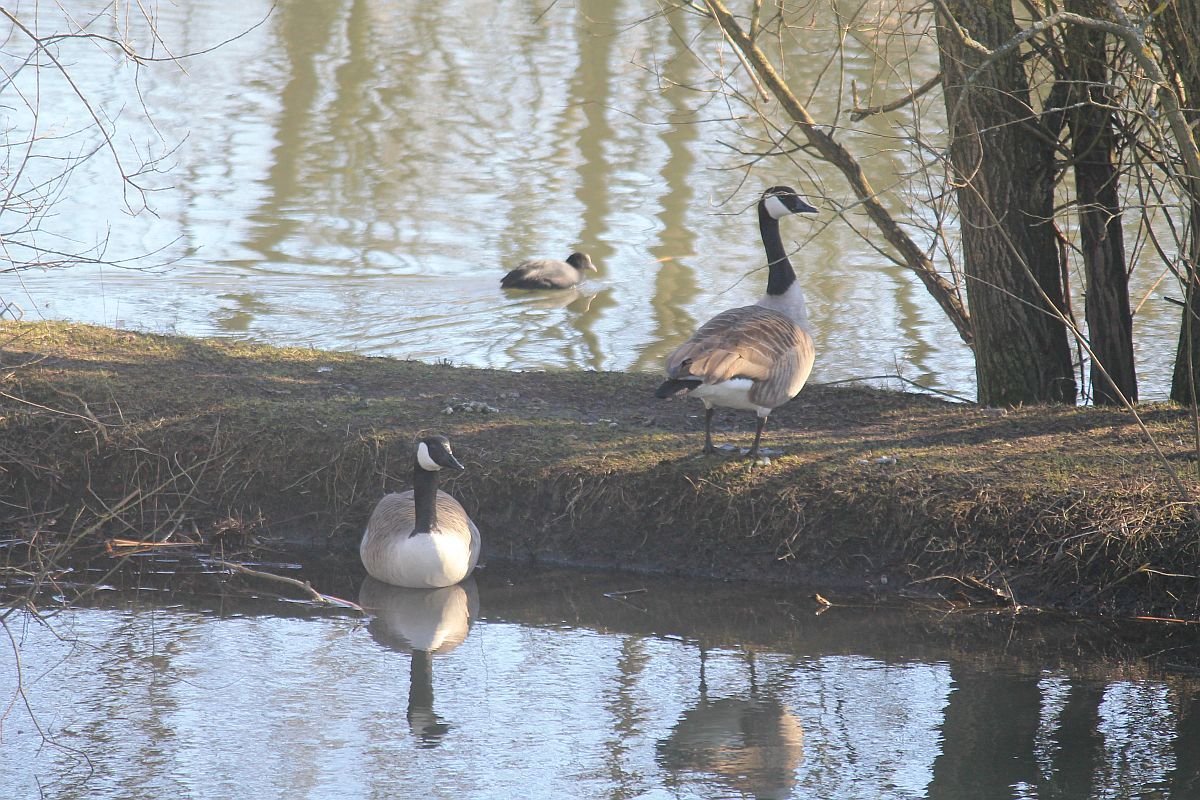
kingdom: Animalia
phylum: Chordata
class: Aves
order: Anseriformes
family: Anatidae
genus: Branta
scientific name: Branta canadensis
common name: Canada goose
